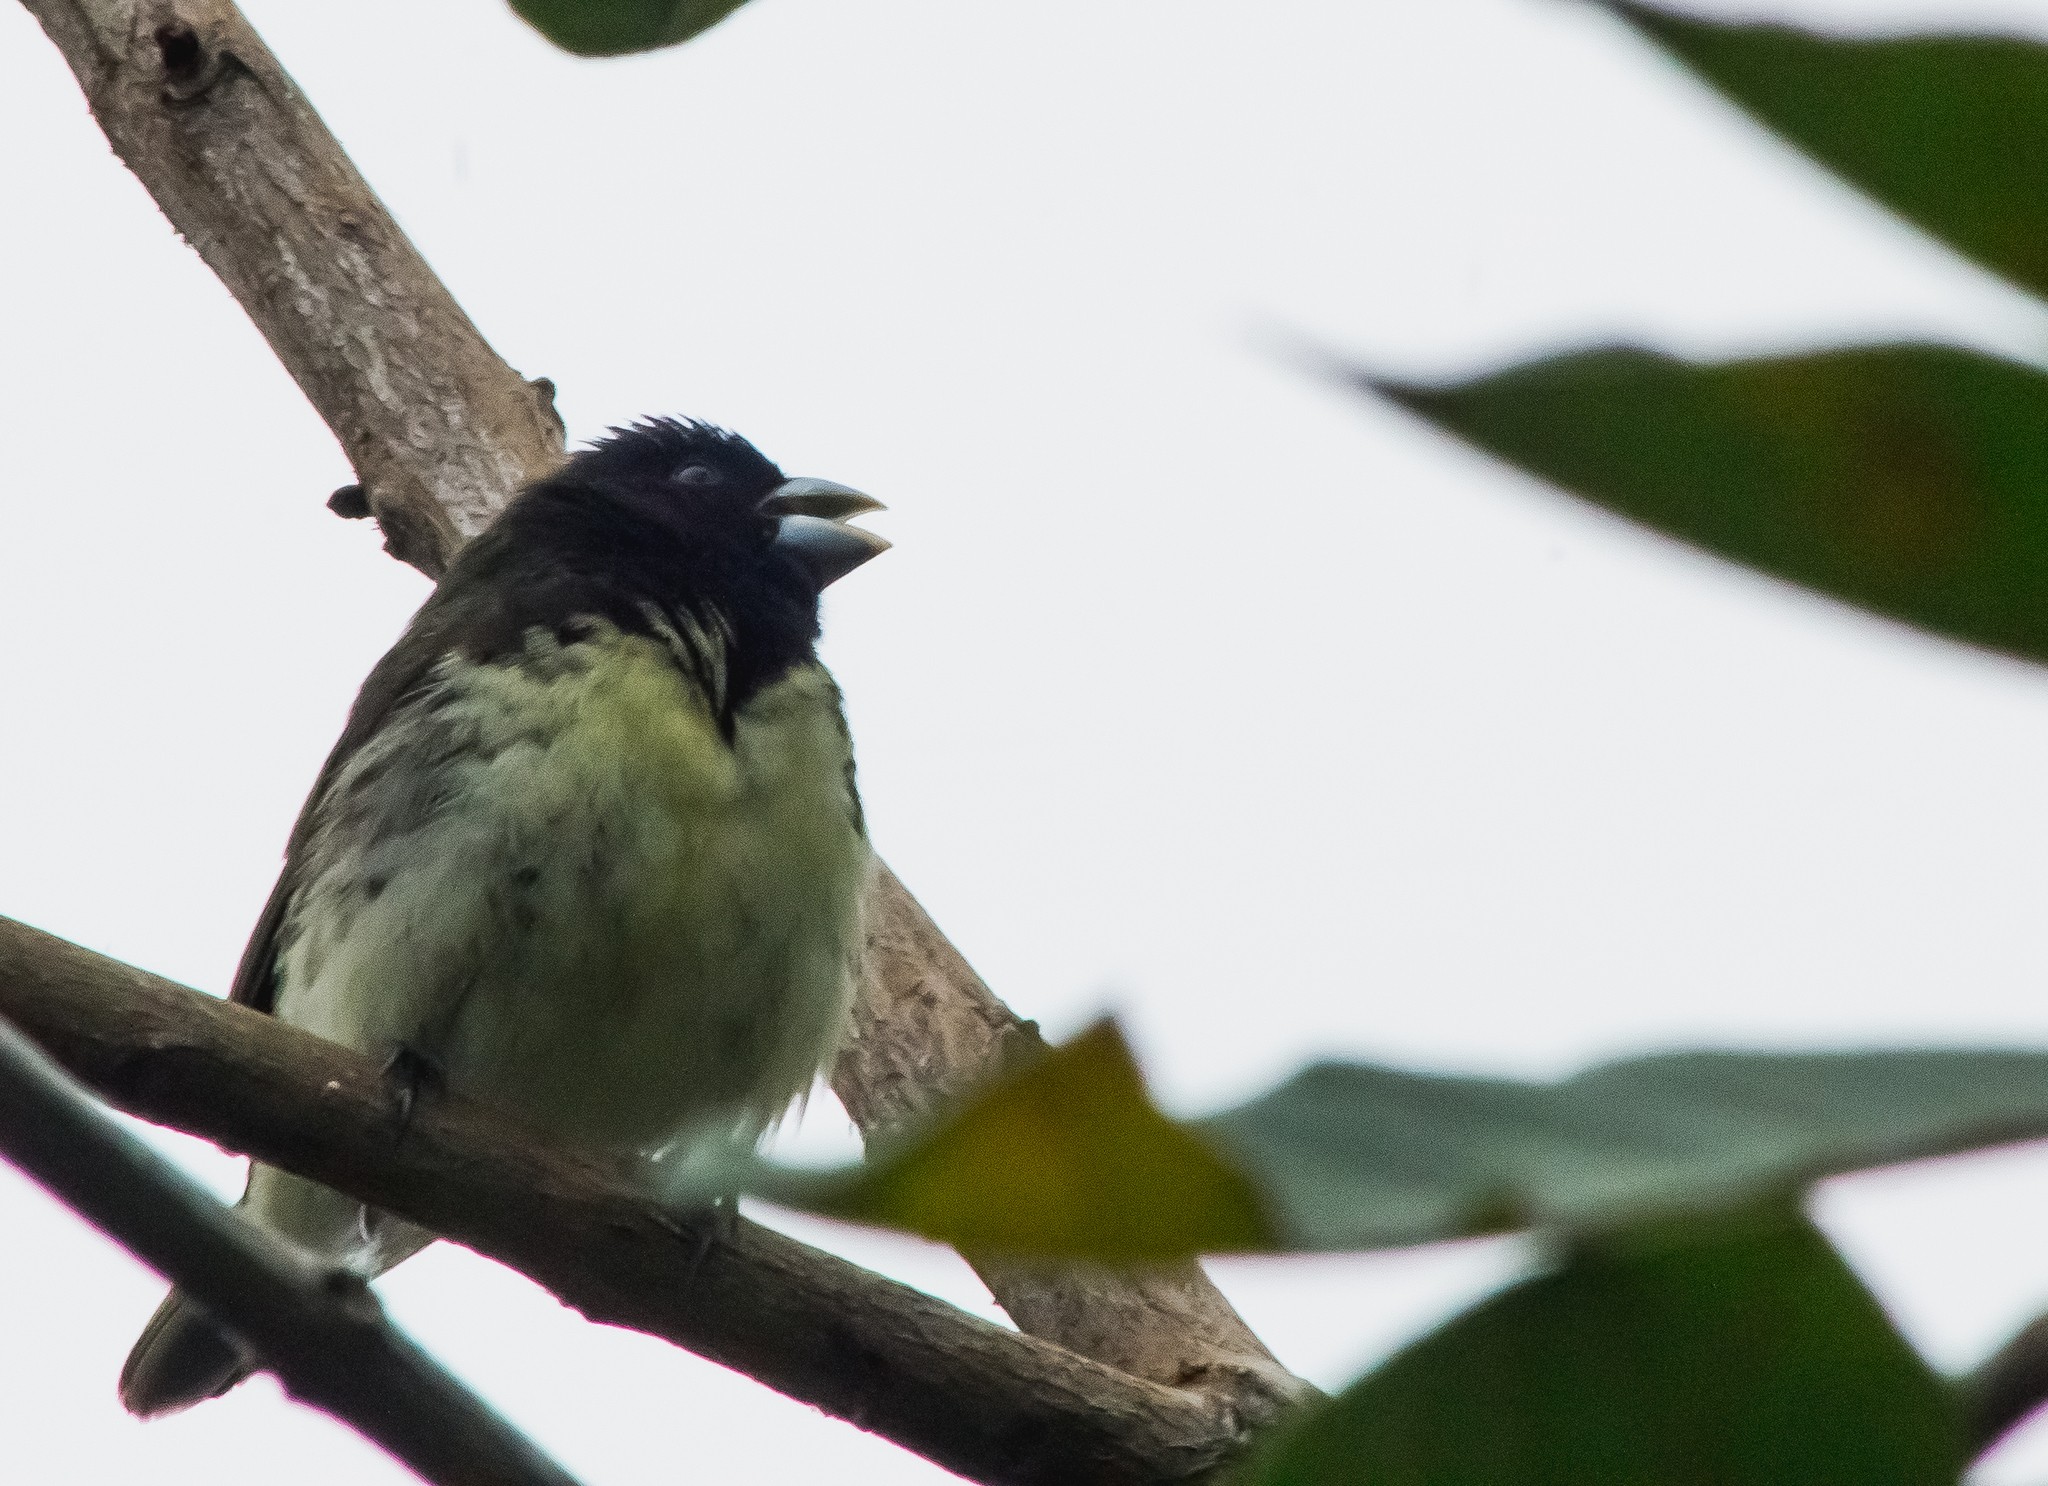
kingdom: Animalia
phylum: Chordata
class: Aves
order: Passeriformes
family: Thraupidae
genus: Sporophila
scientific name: Sporophila nigricollis
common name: Yellow-bellied seedeater
